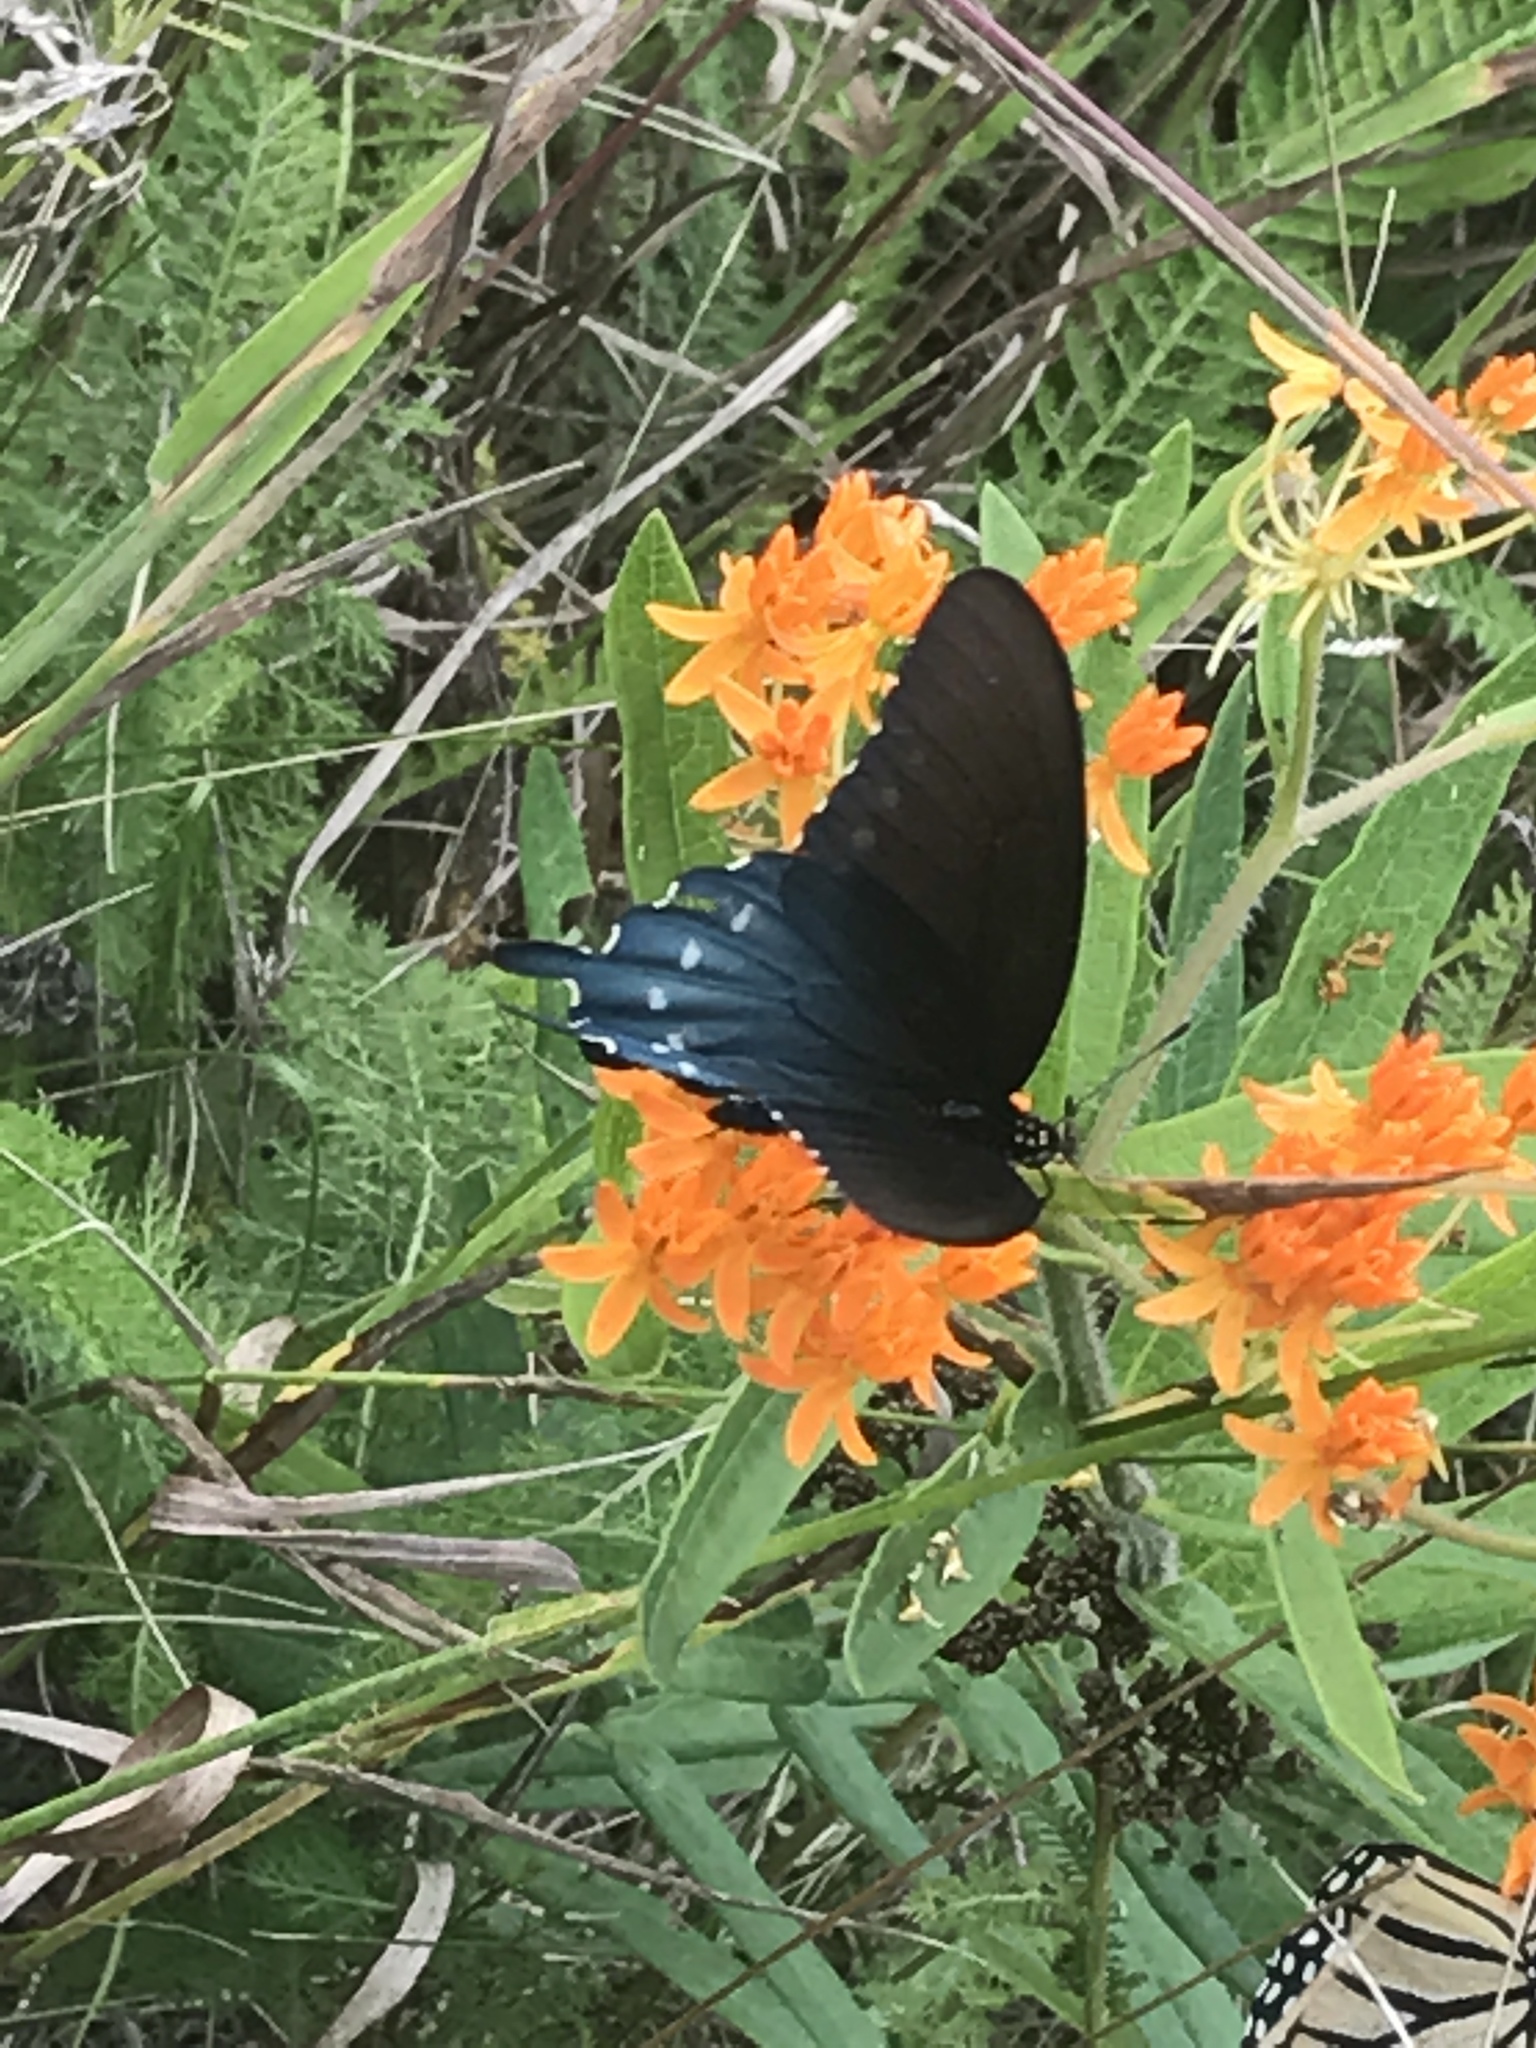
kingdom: Animalia
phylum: Arthropoda
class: Insecta
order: Lepidoptera
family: Papilionidae
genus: Battus
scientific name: Battus philenor
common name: Pipevine swallowtail
